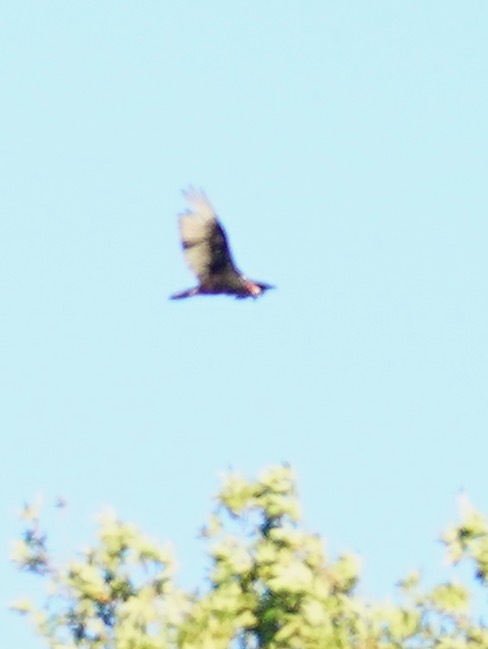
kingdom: Animalia
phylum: Chordata
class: Aves
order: Accipitriformes
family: Cathartidae
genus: Cathartes
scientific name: Cathartes aura
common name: Turkey vulture
